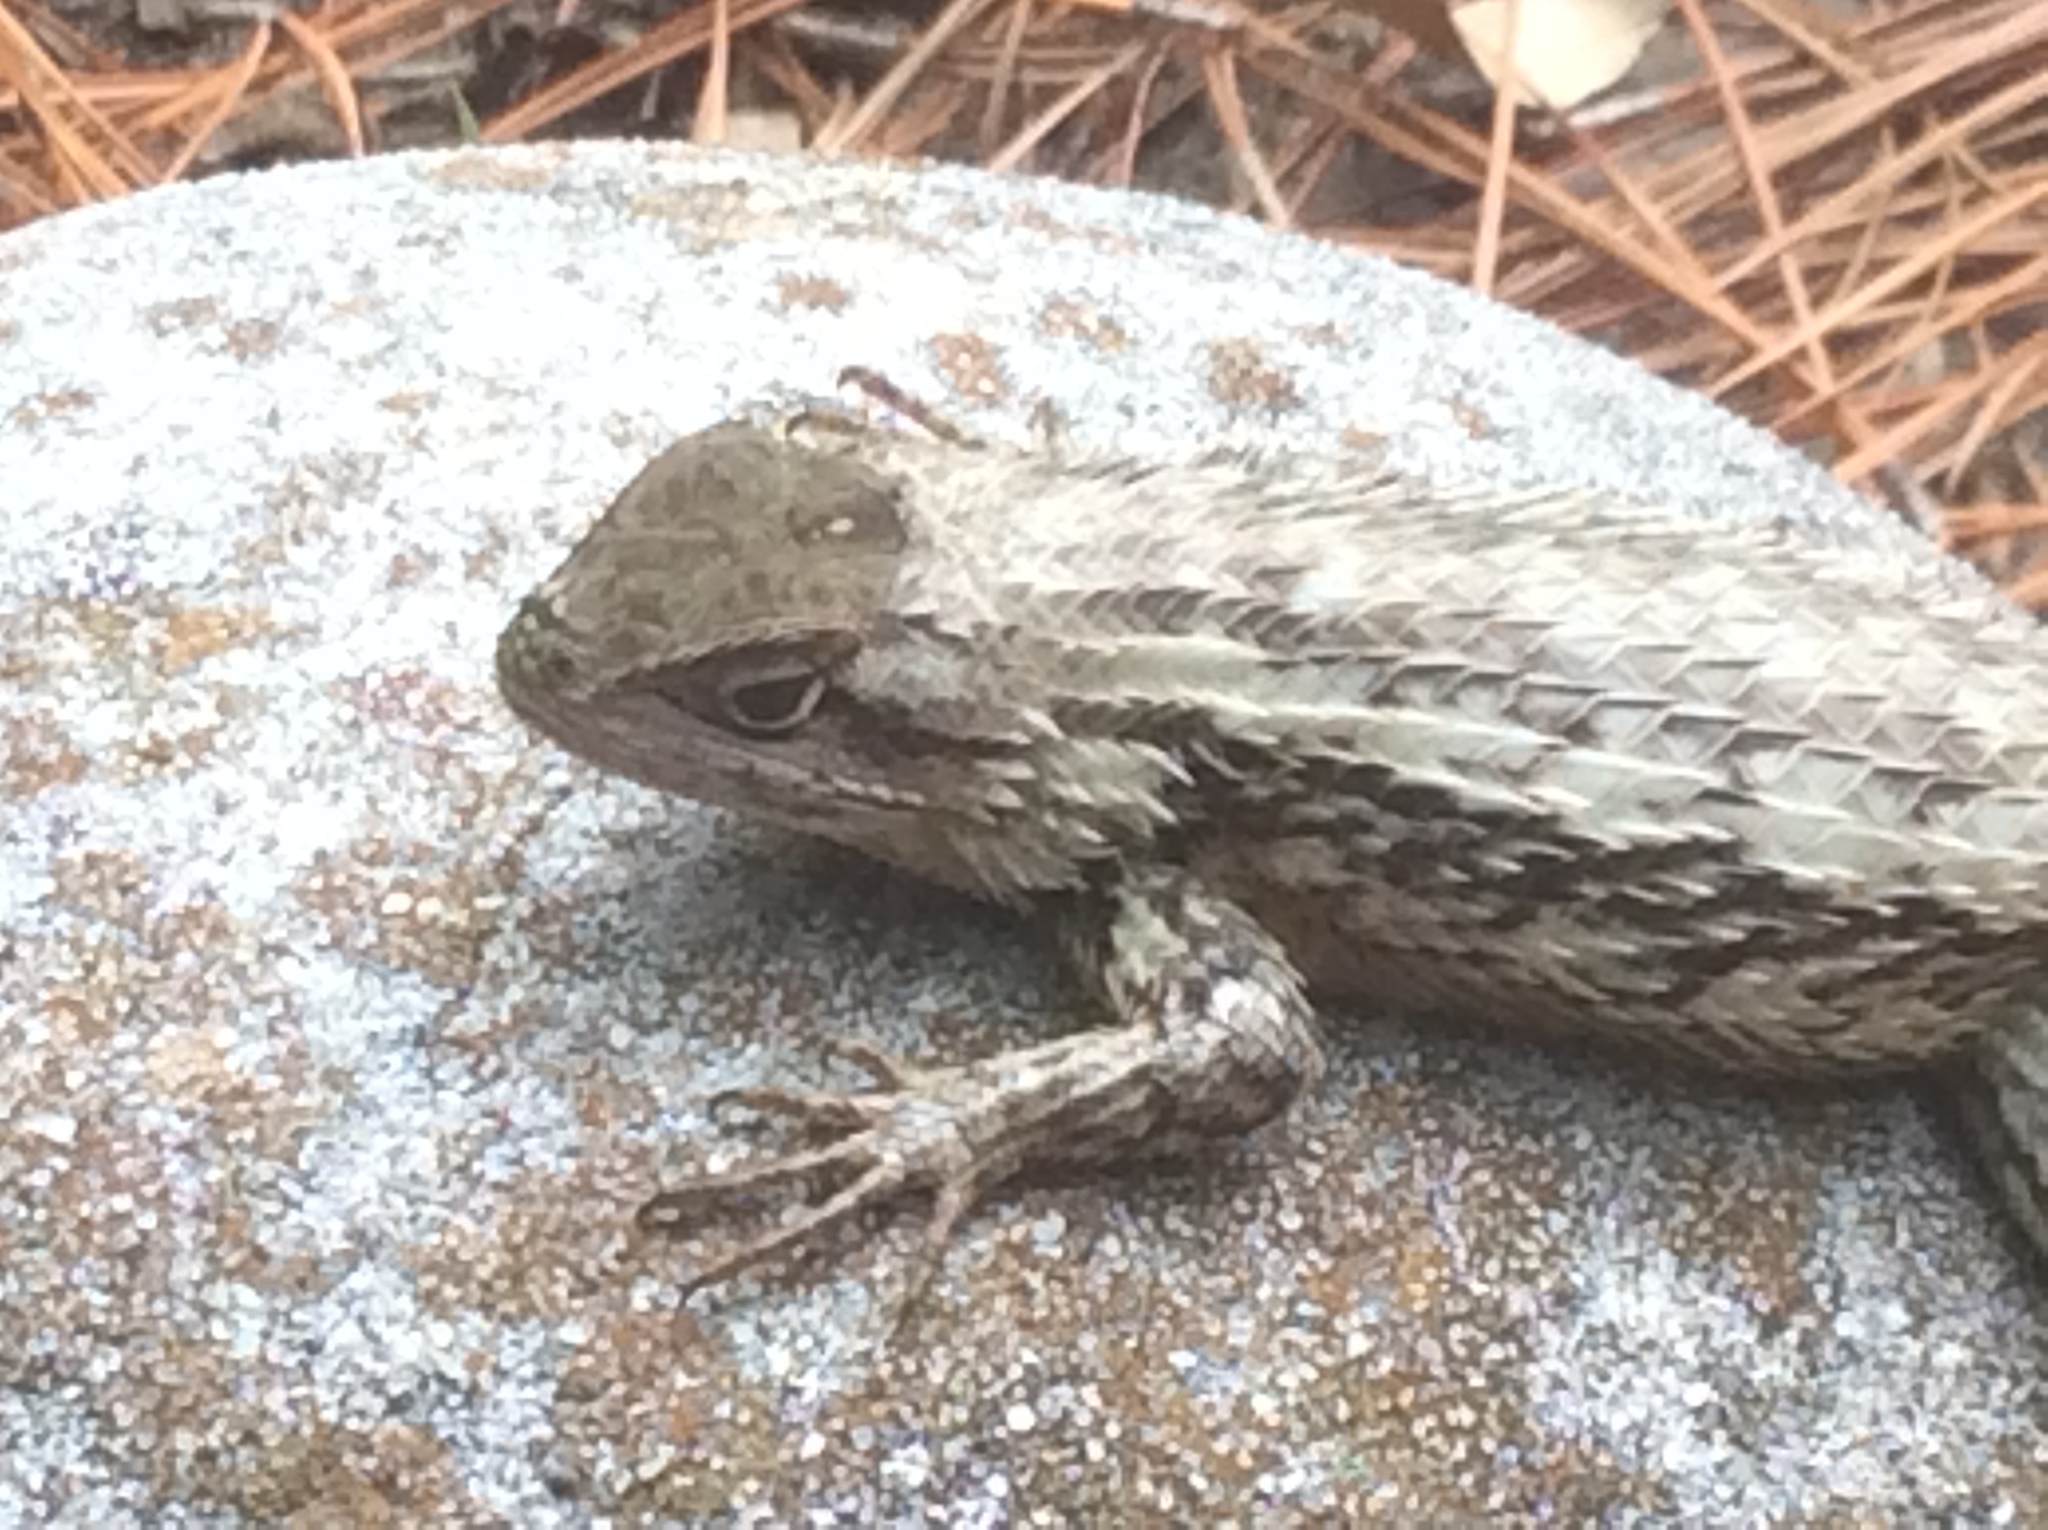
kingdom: Animalia
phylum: Chordata
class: Squamata
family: Phrynosomatidae
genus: Sceloporus
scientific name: Sceloporus olivaceus
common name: Texas spiny lizard
